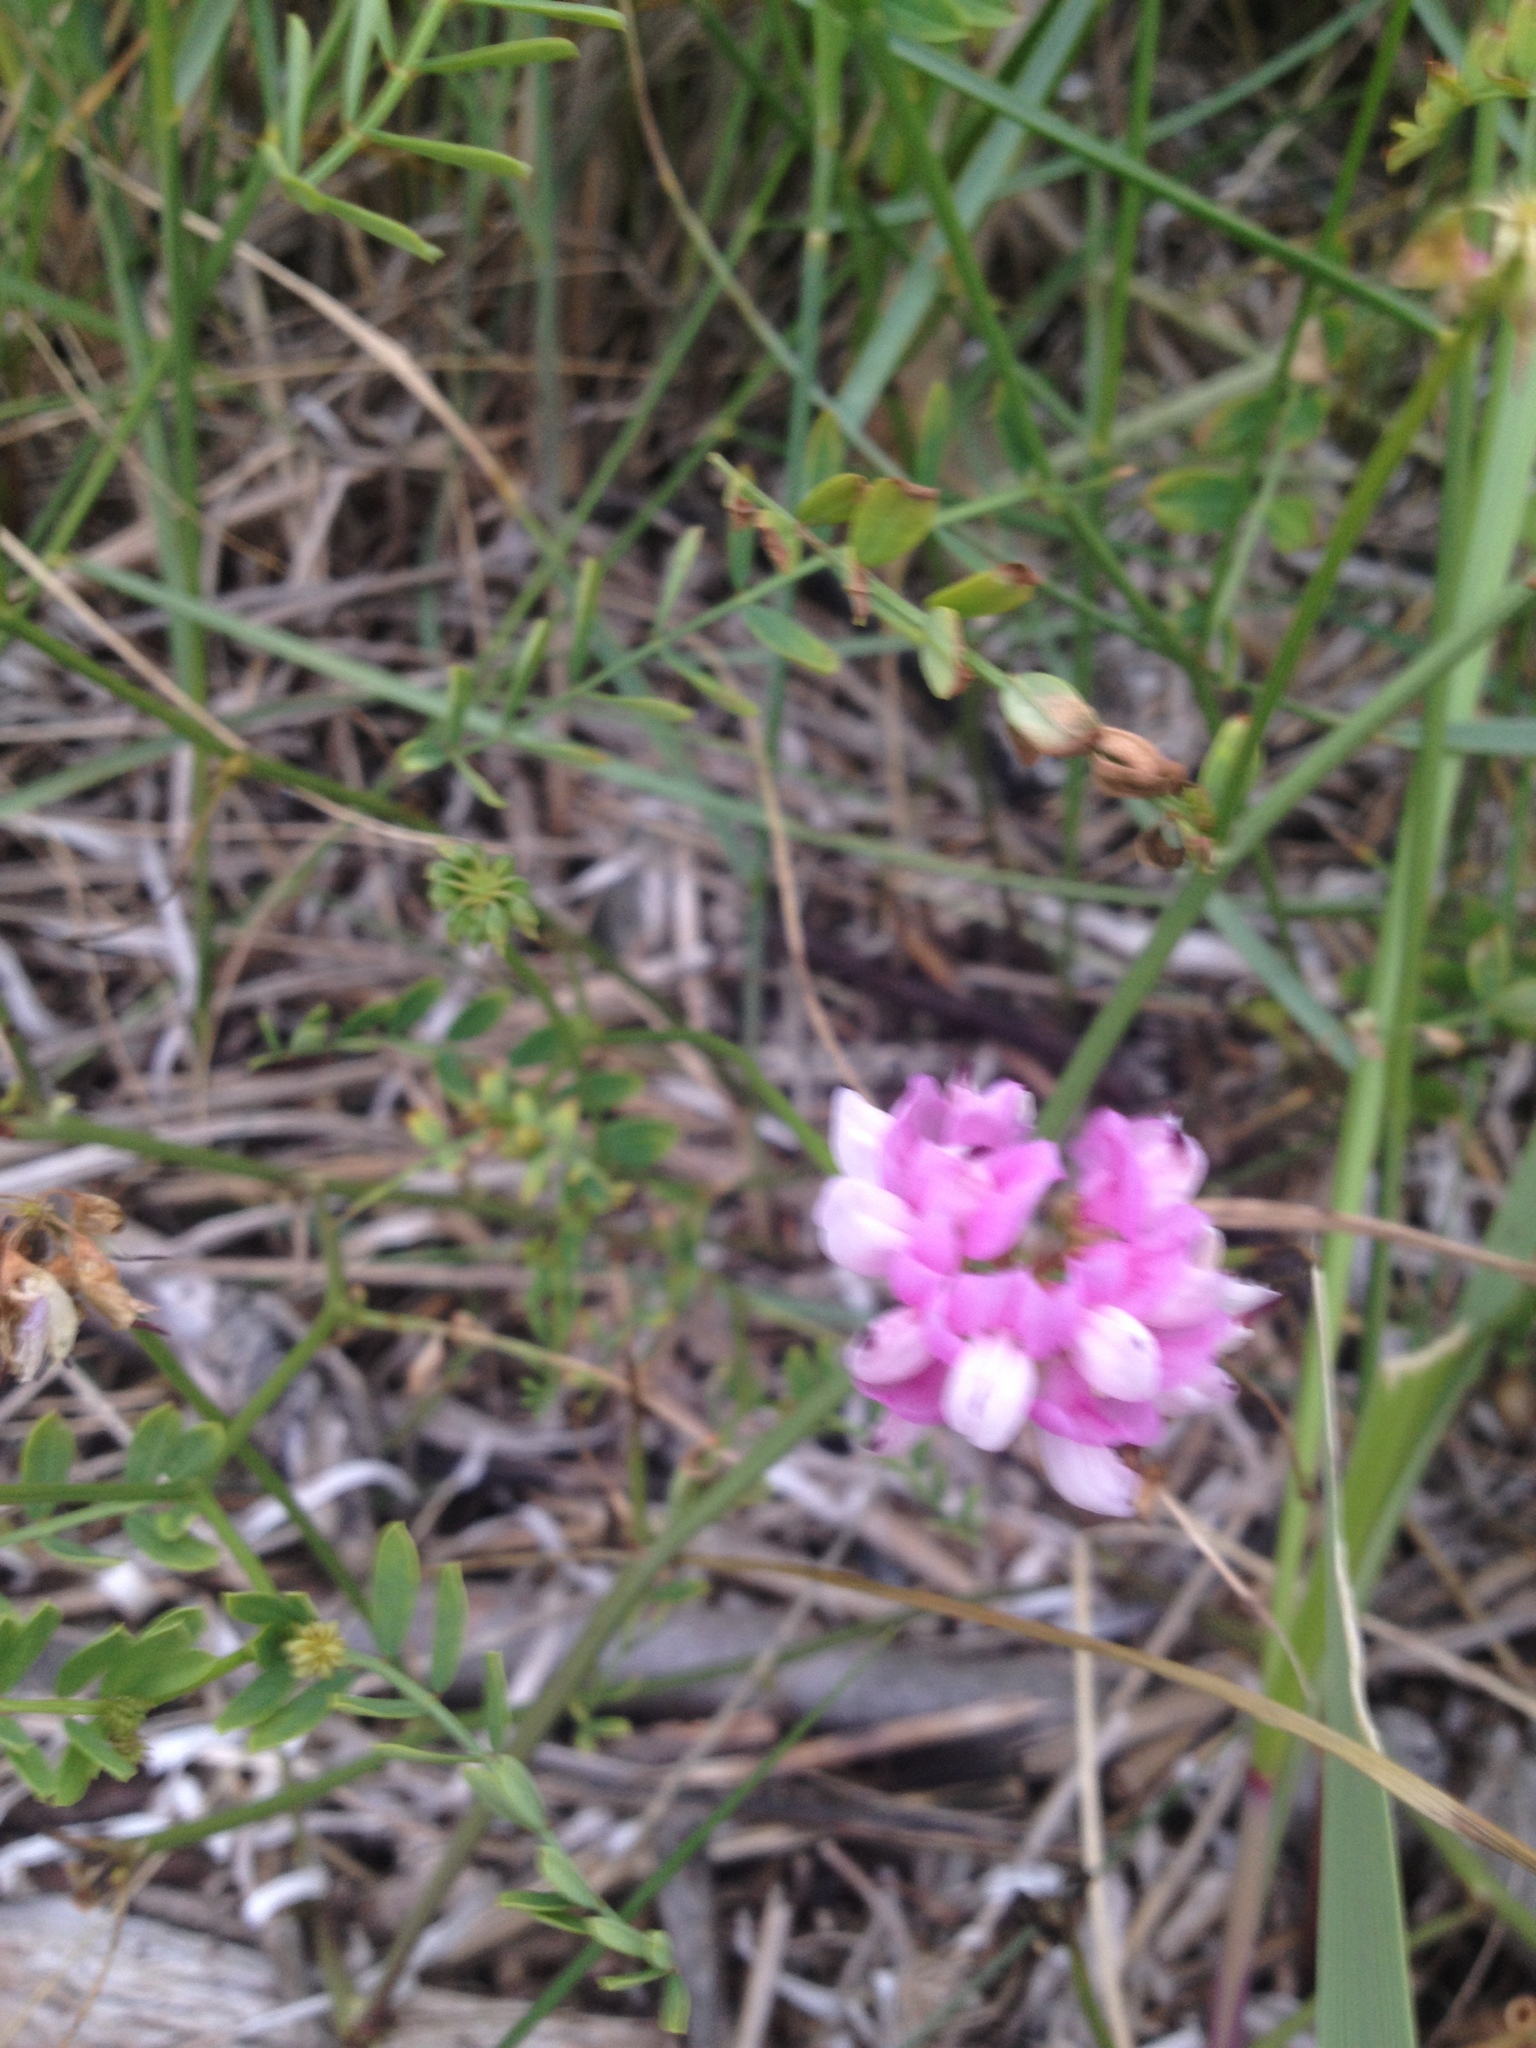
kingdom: Plantae
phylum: Tracheophyta
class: Magnoliopsida
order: Fabales
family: Fabaceae
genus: Coronilla
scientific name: Coronilla varia
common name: Crownvetch
